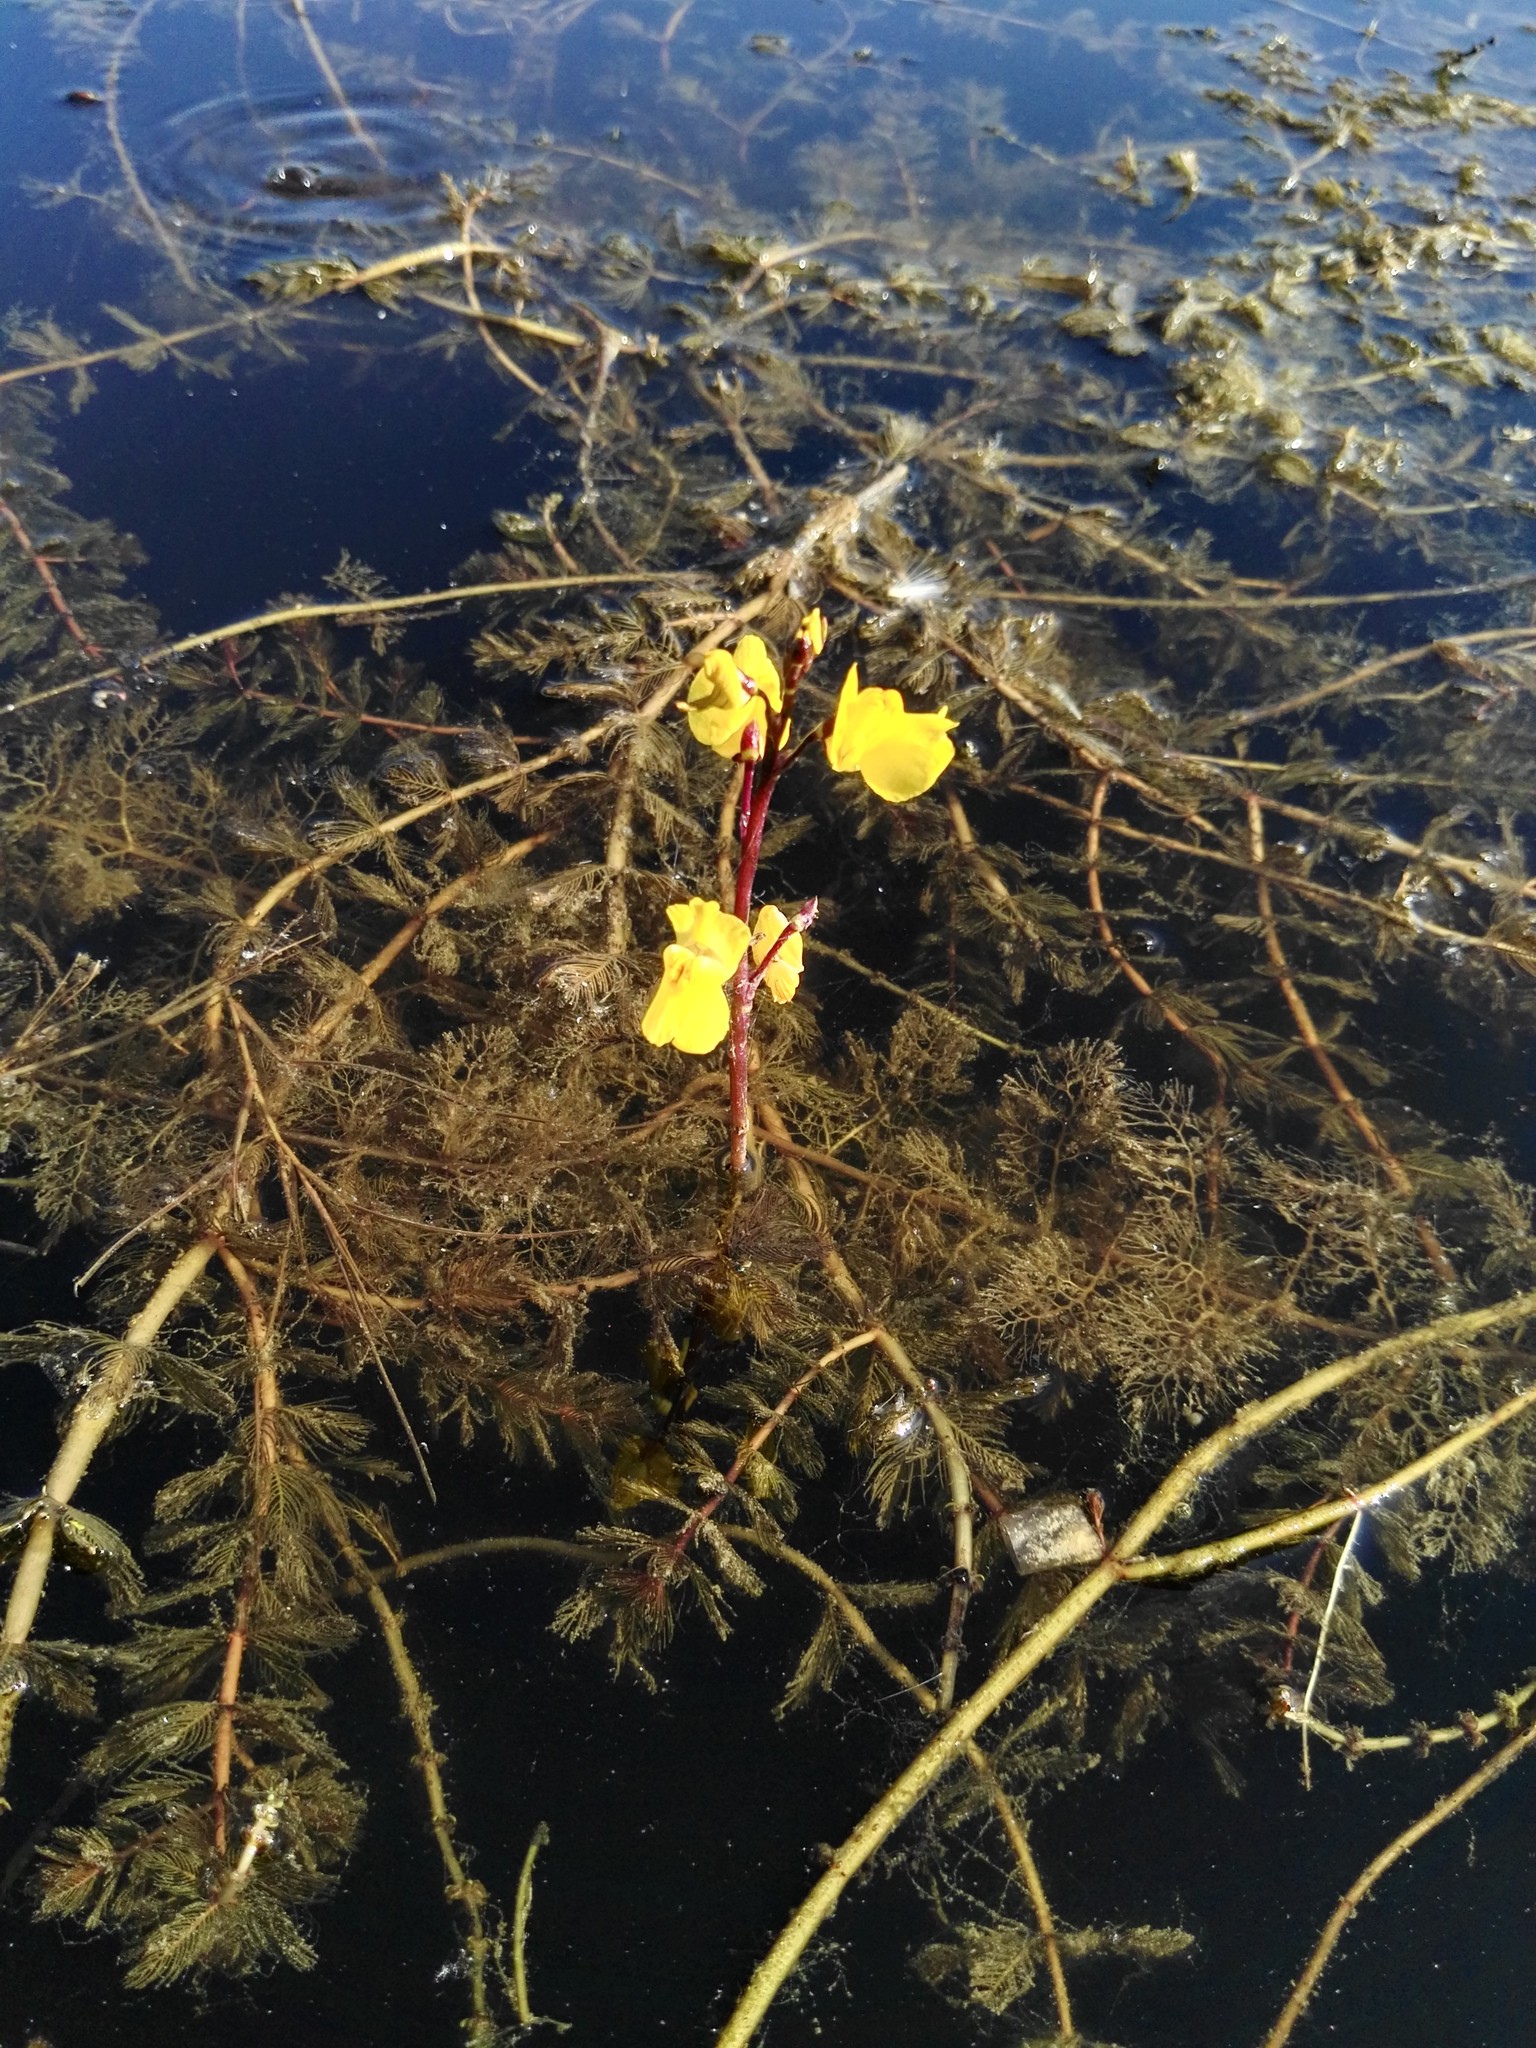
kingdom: Plantae
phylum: Tracheophyta
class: Magnoliopsida
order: Lamiales
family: Lentibulariaceae
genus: Utricularia
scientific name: Utricularia vulgaris
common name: Greater bladderwort
